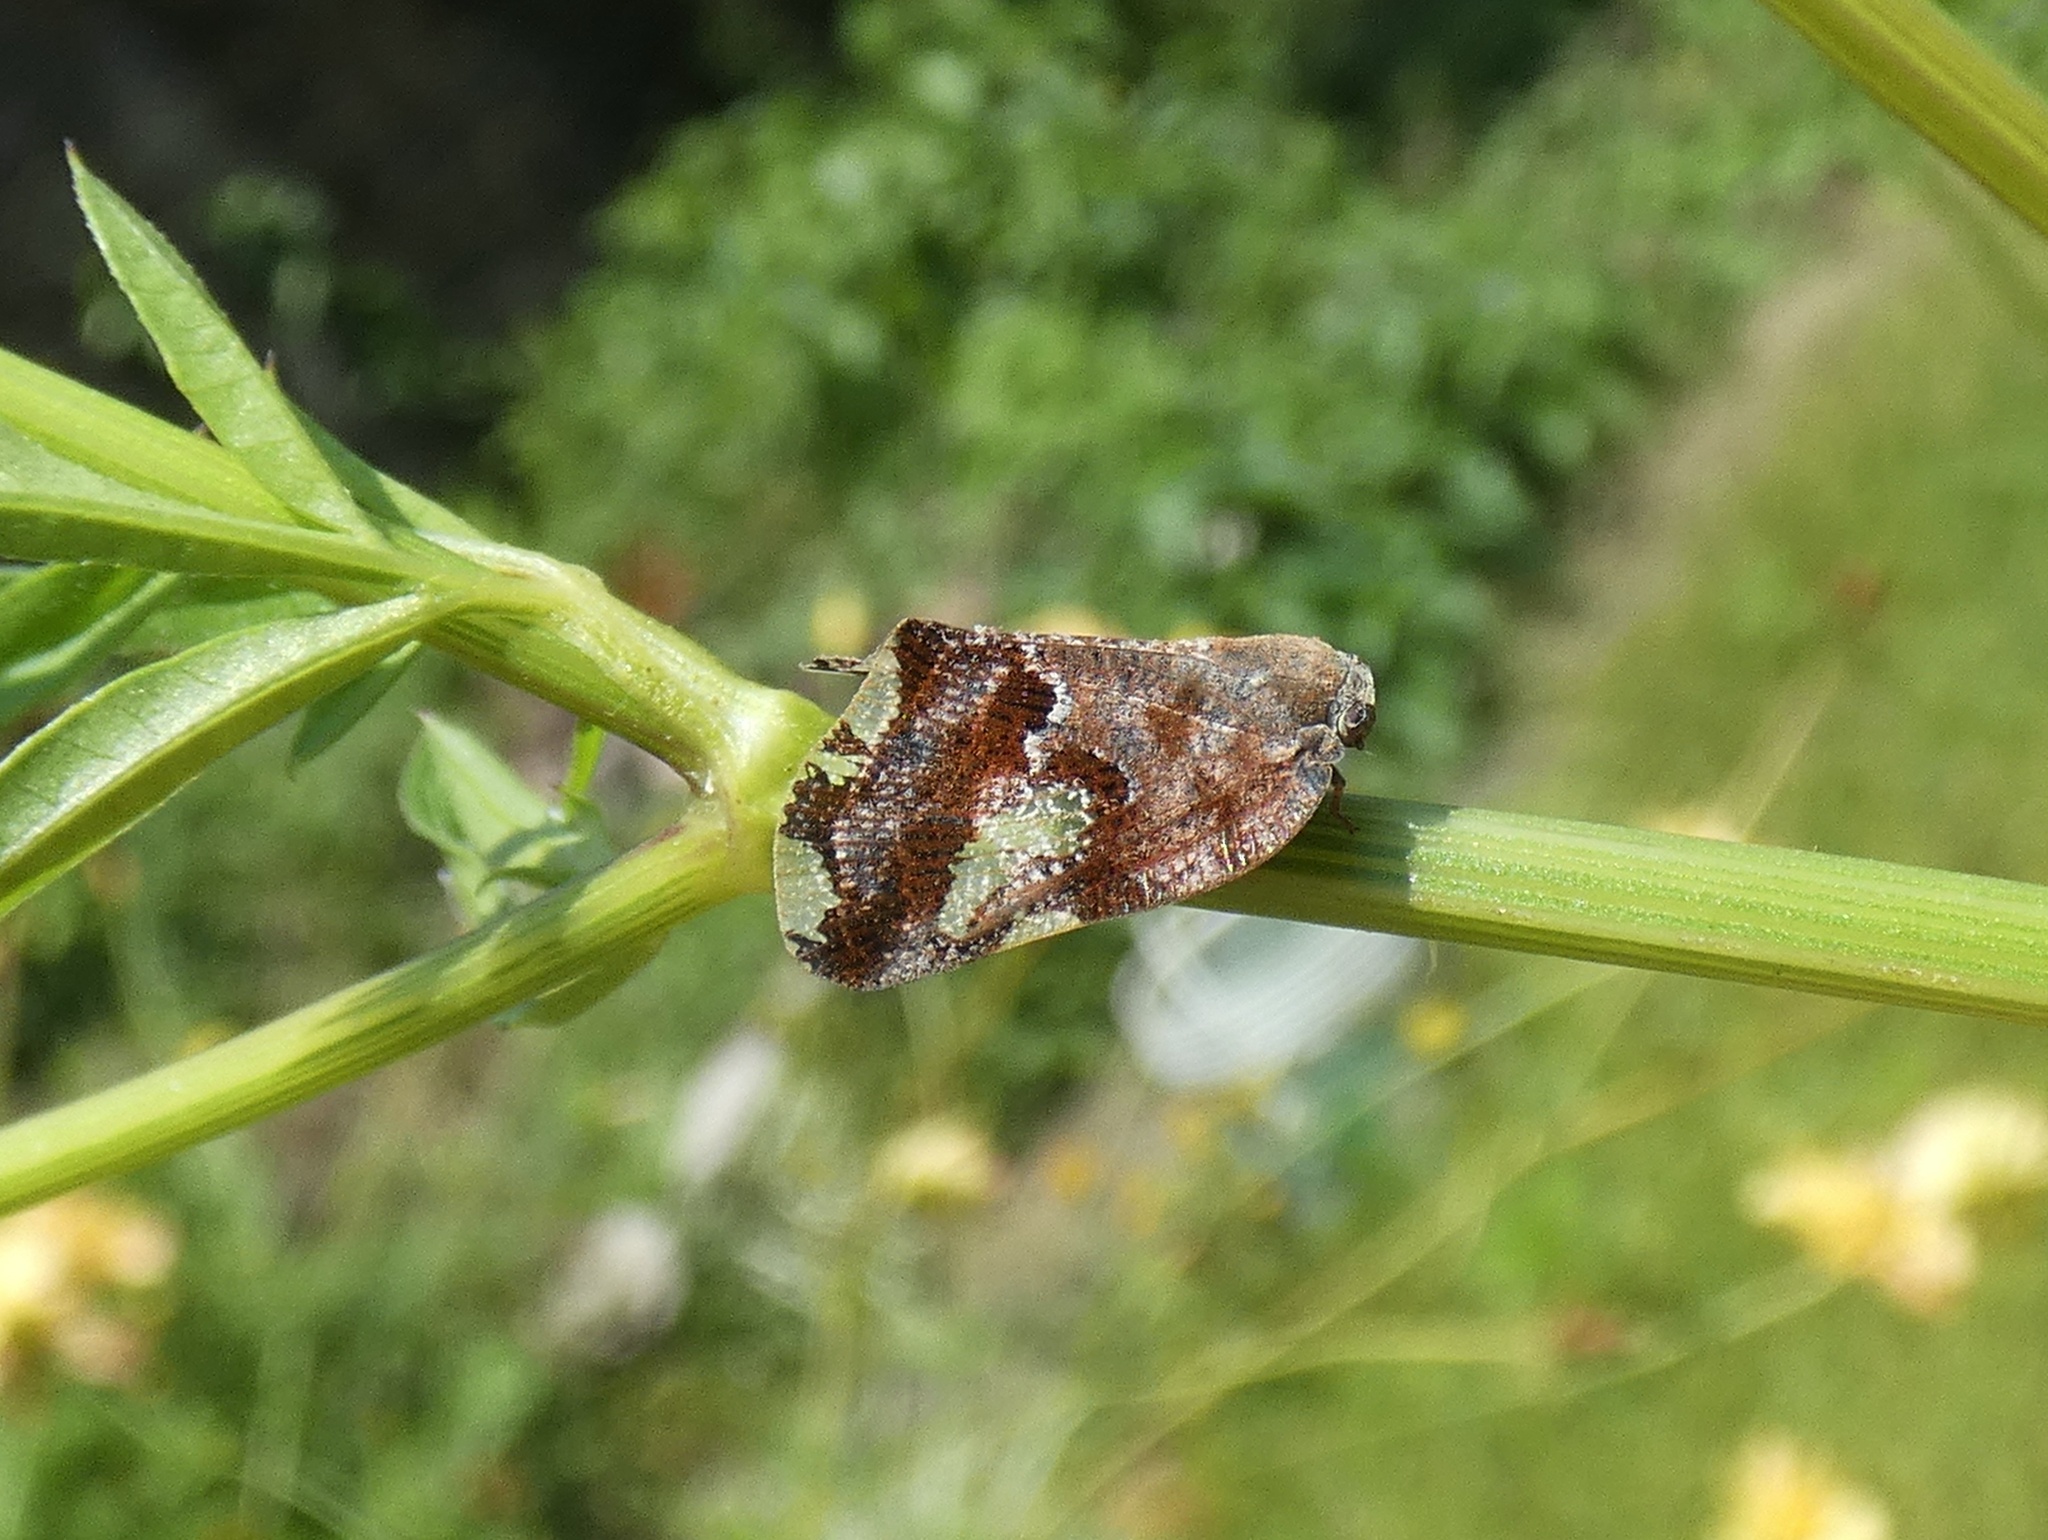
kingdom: Animalia
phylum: Arthropoda
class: Insecta
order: Hemiptera
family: Ricaniidae
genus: Ricania
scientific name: Ricania speculum
